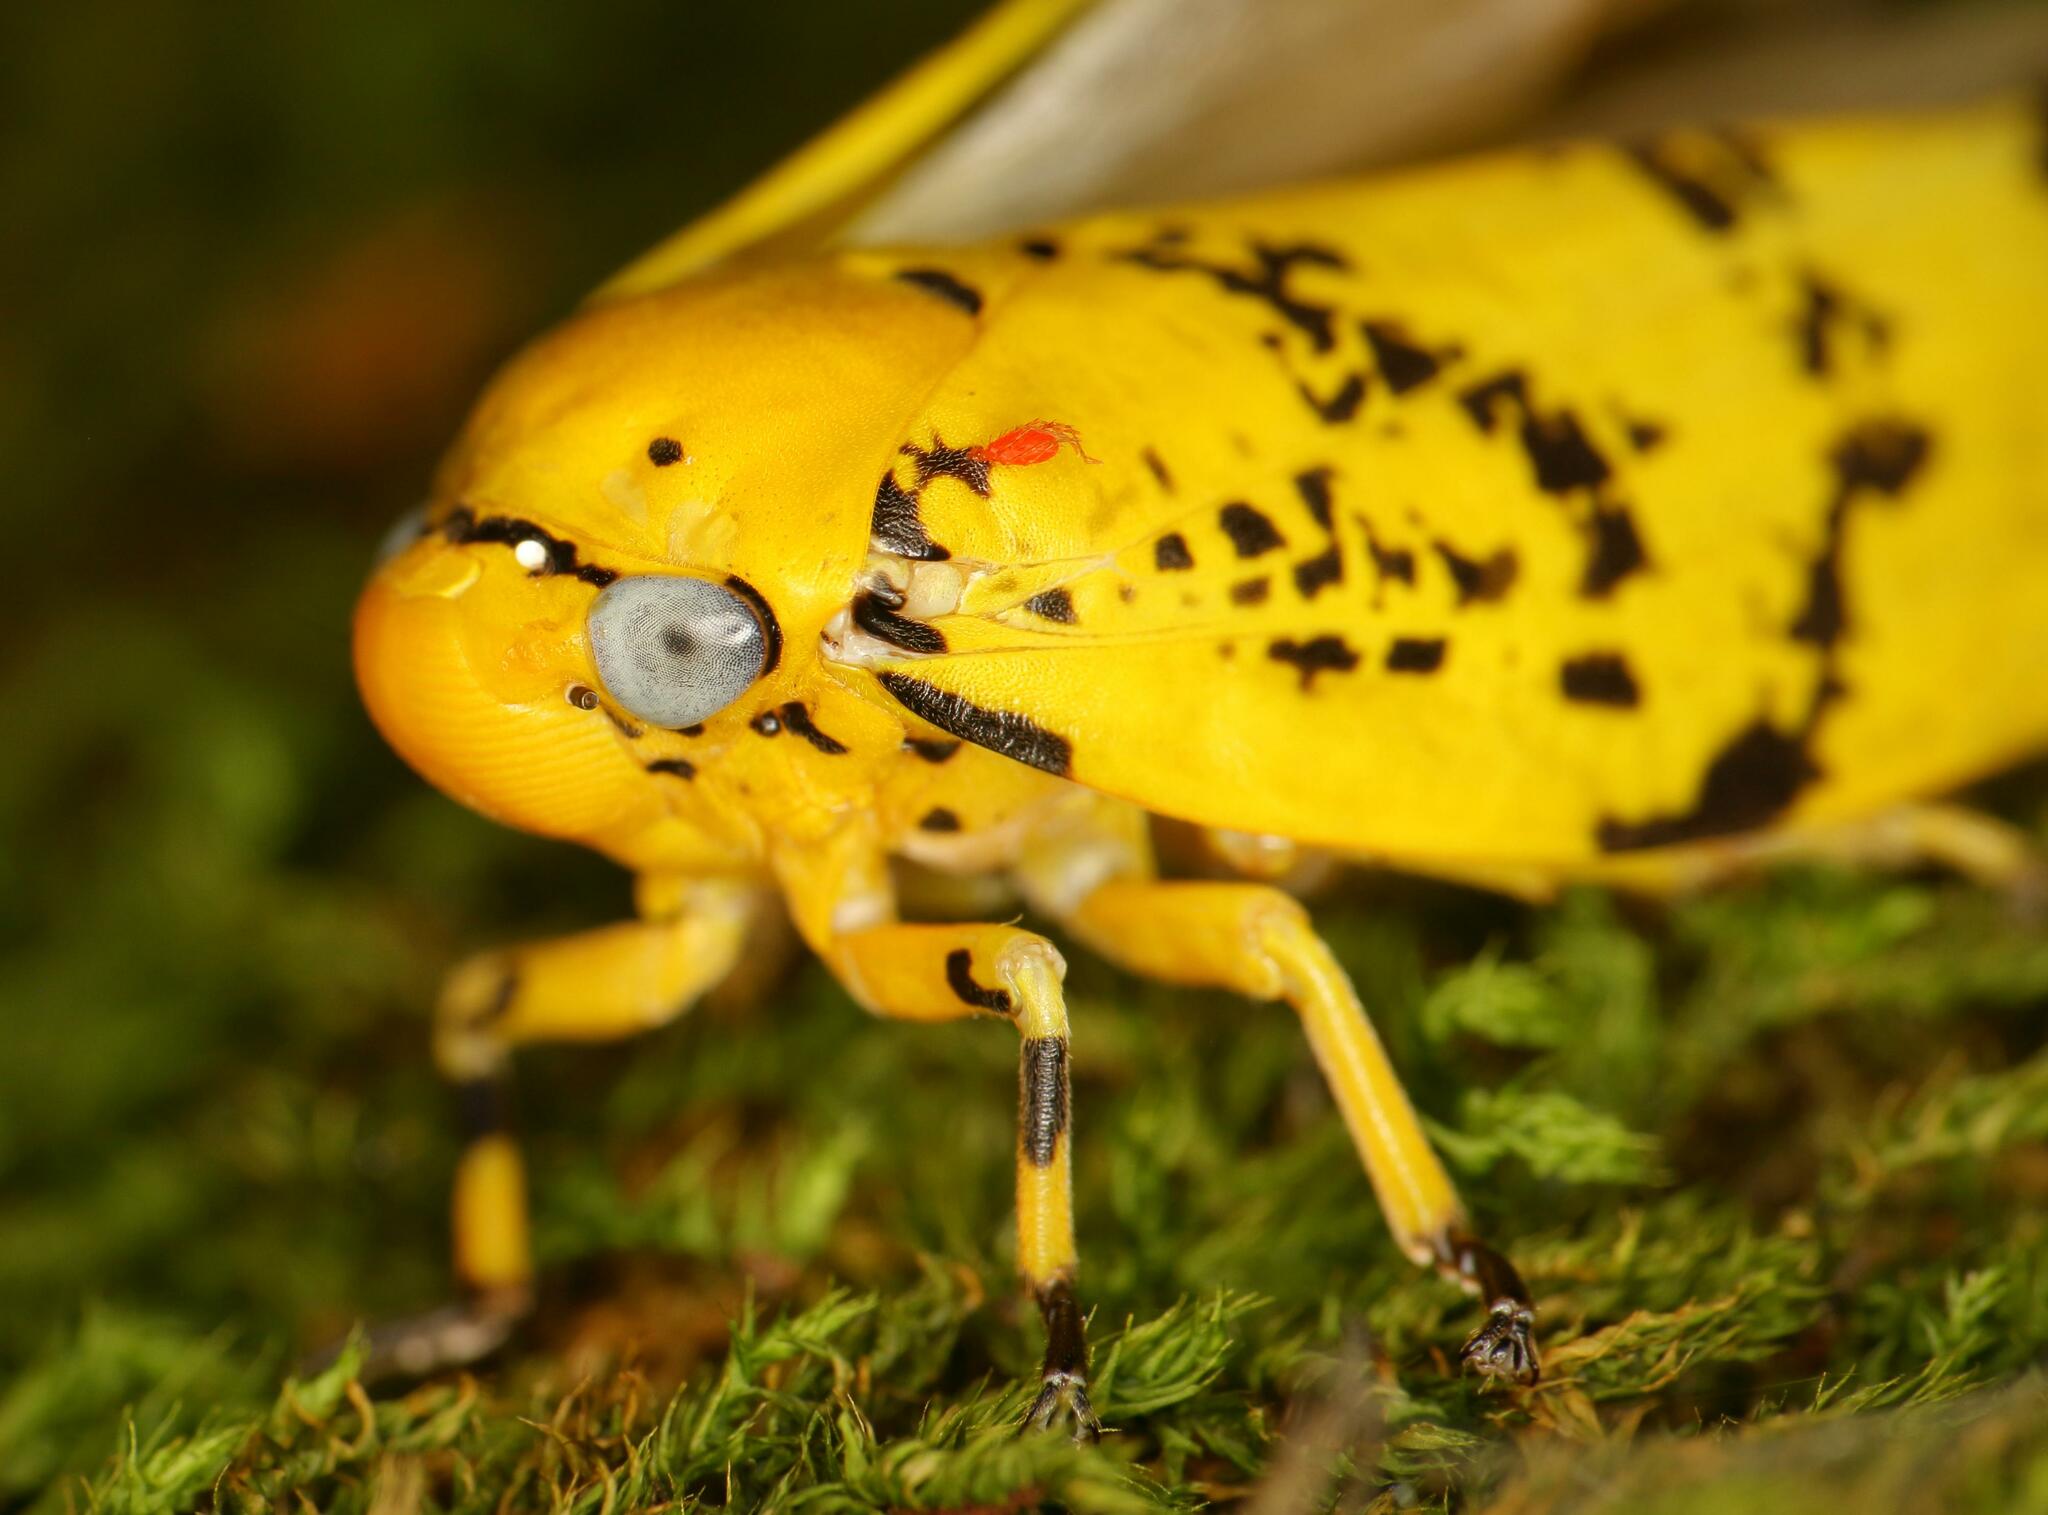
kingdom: Animalia
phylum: Arthropoda
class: Insecta
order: Hemiptera
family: Aphrophoridae
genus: Ptyelus
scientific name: Ptyelus flavescens
